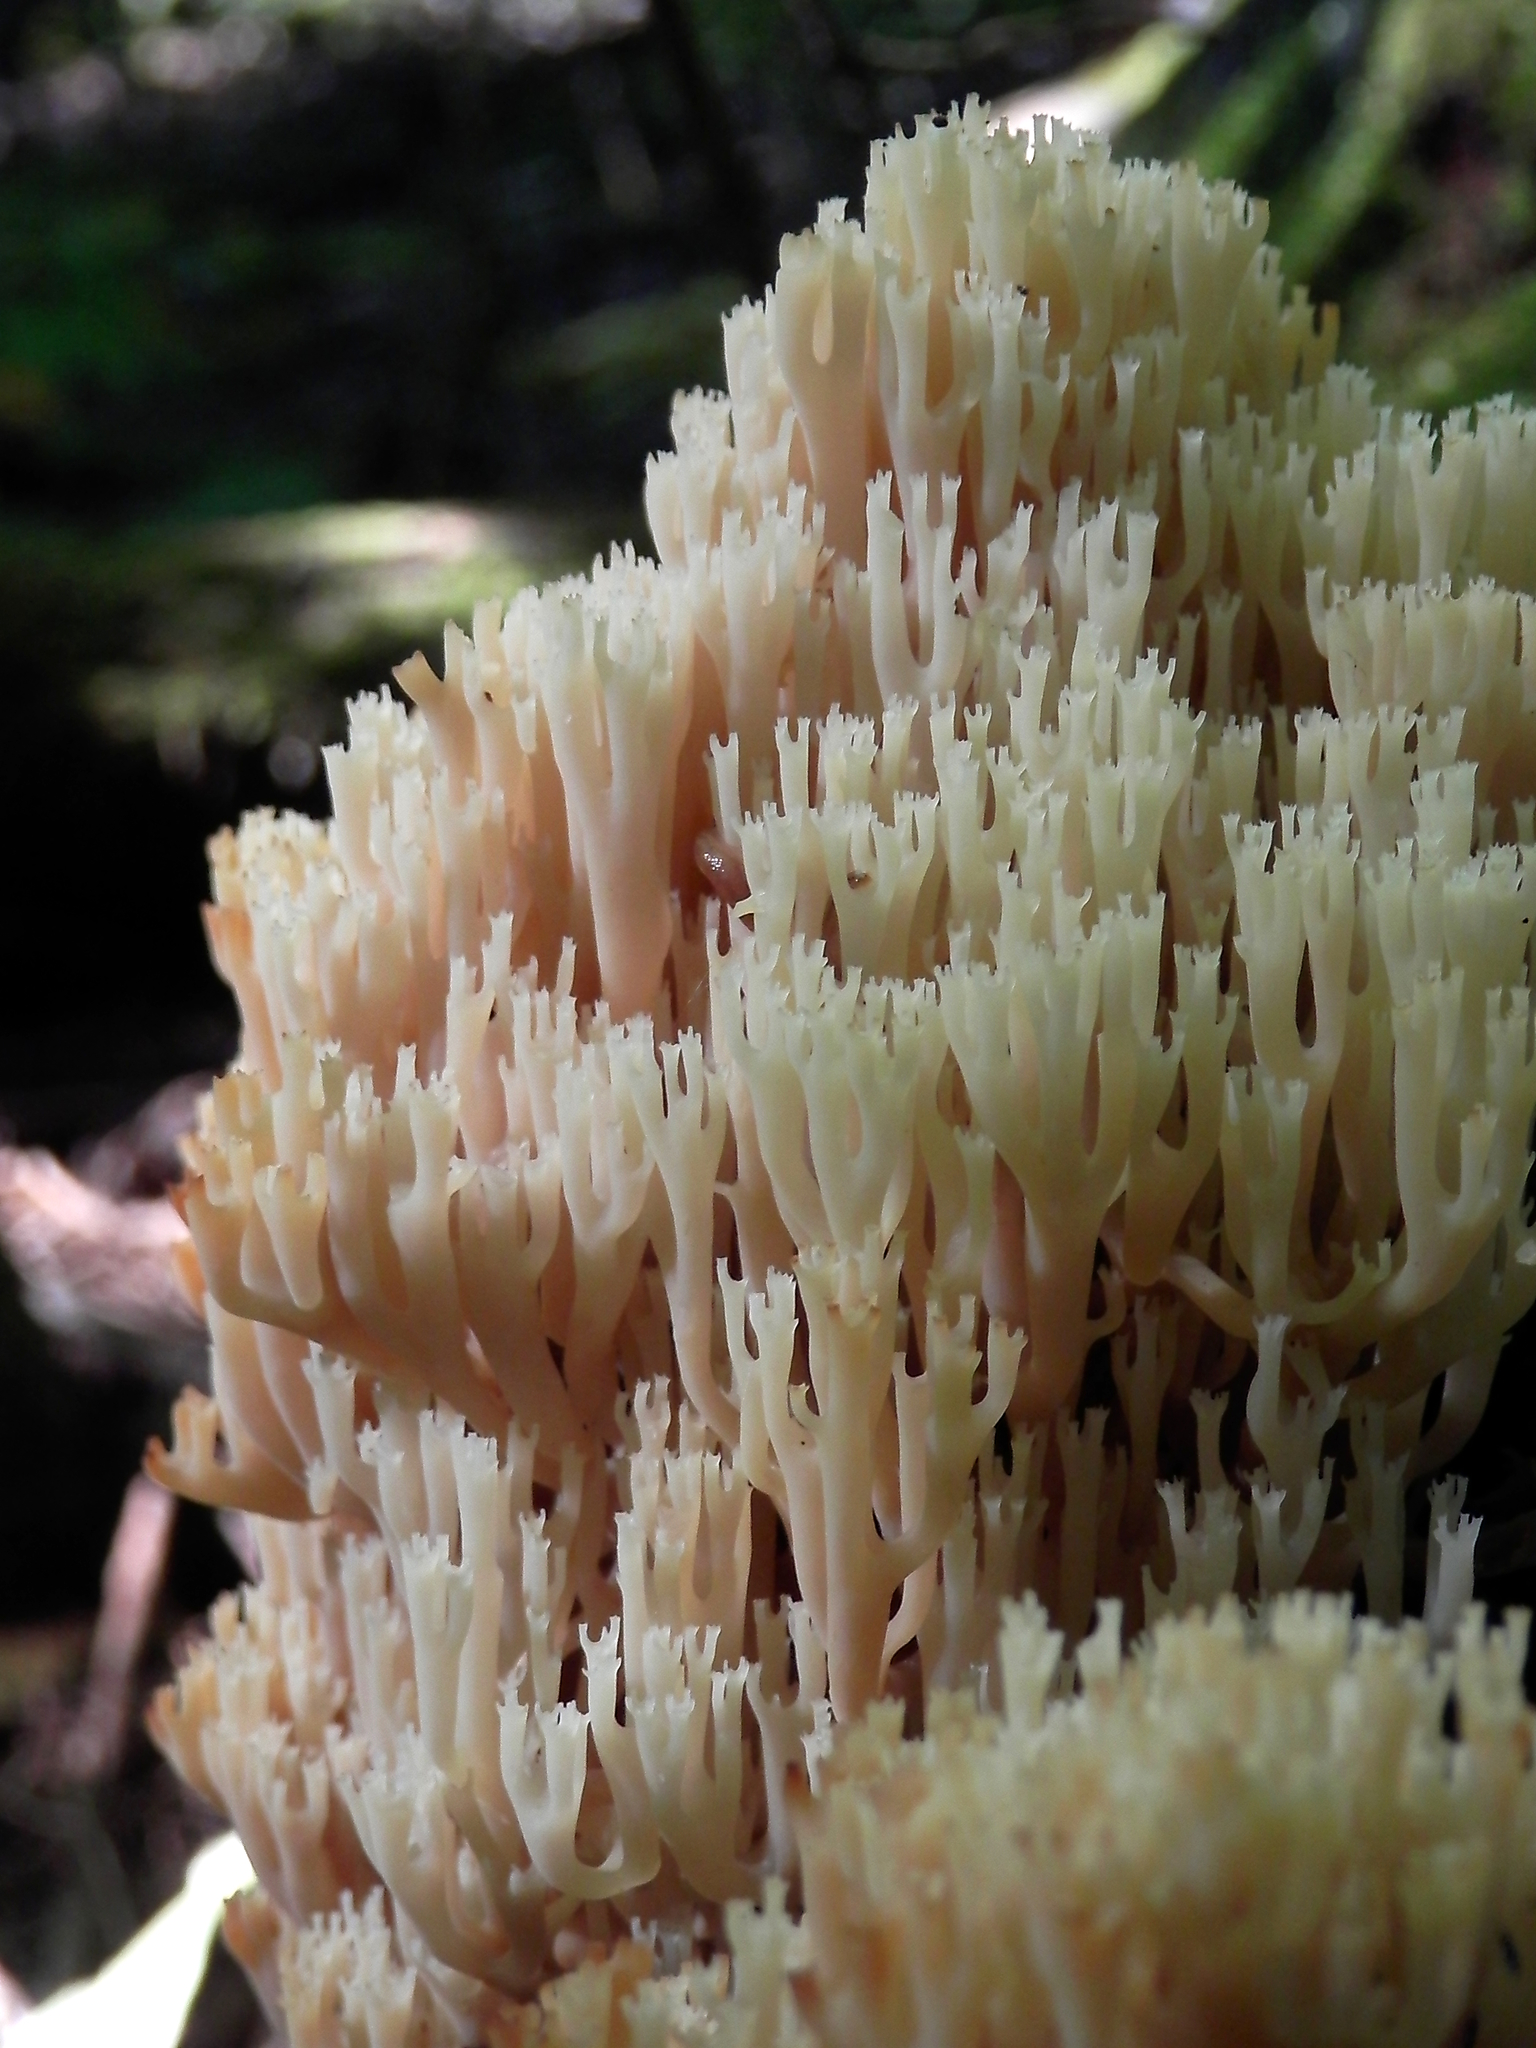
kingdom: Fungi
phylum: Basidiomycota
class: Agaricomycetes
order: Russulales
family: Auriscalpiaceae
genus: Artomyces
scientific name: Artomyces pyxidatus
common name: Crown-tipped coral fungus
